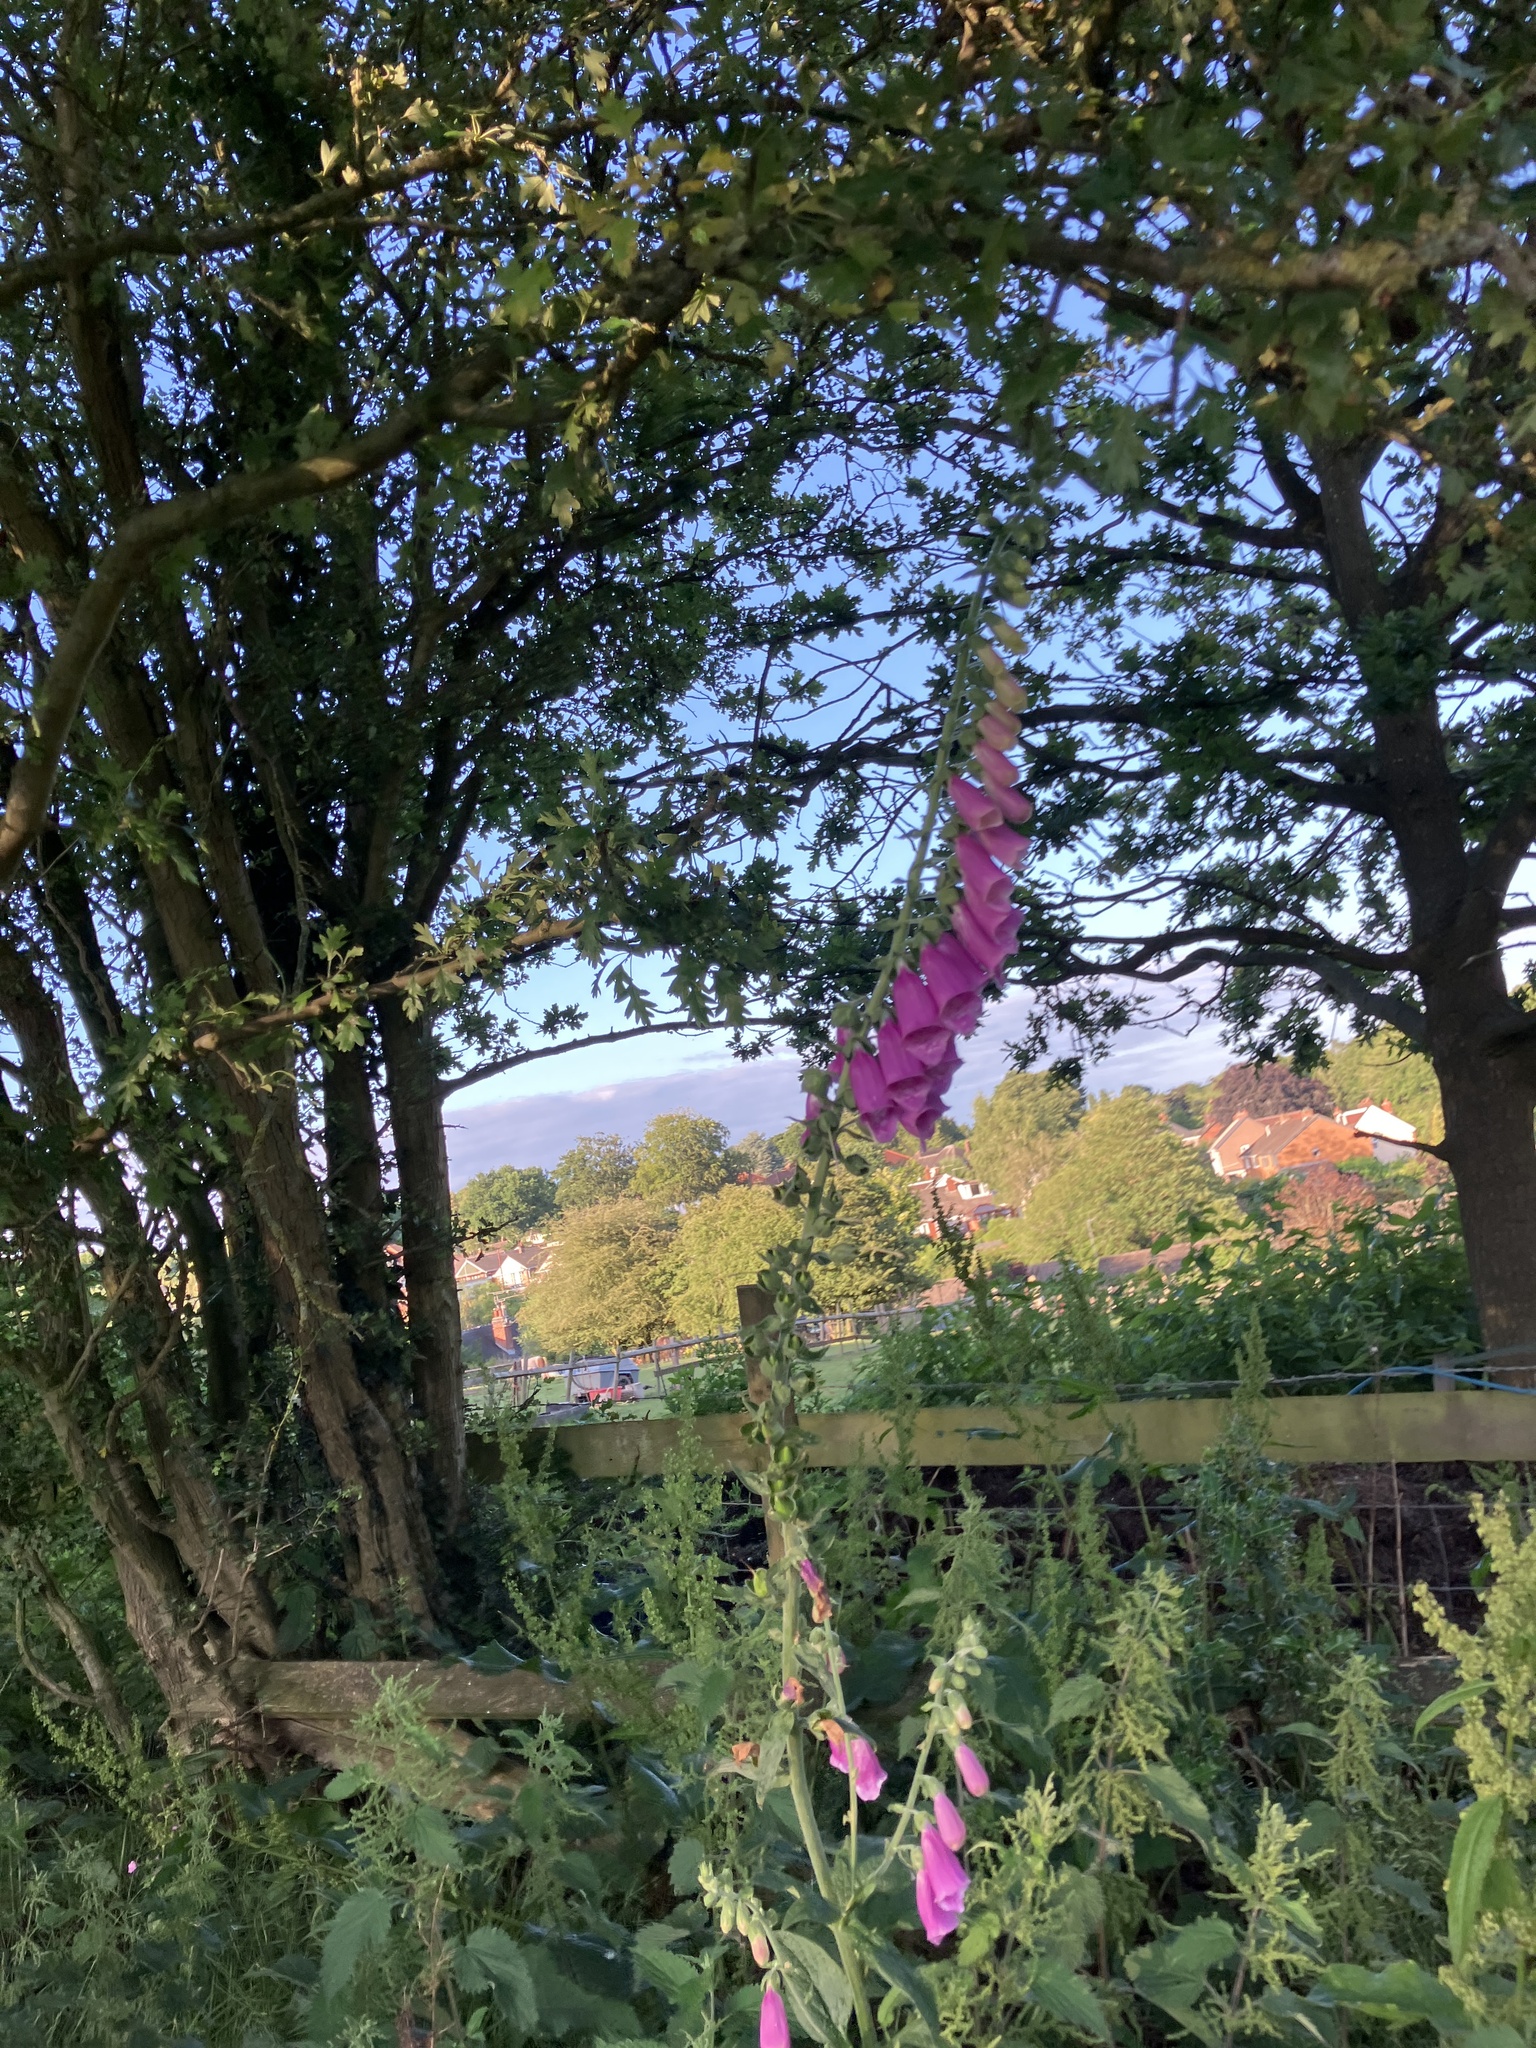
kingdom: Plantae
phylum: Tracheophyta
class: Magnoliopsida
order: Lamiales
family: Plantaginaceae
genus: Digitalis
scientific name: Digitalis purpurea
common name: Foxglove
